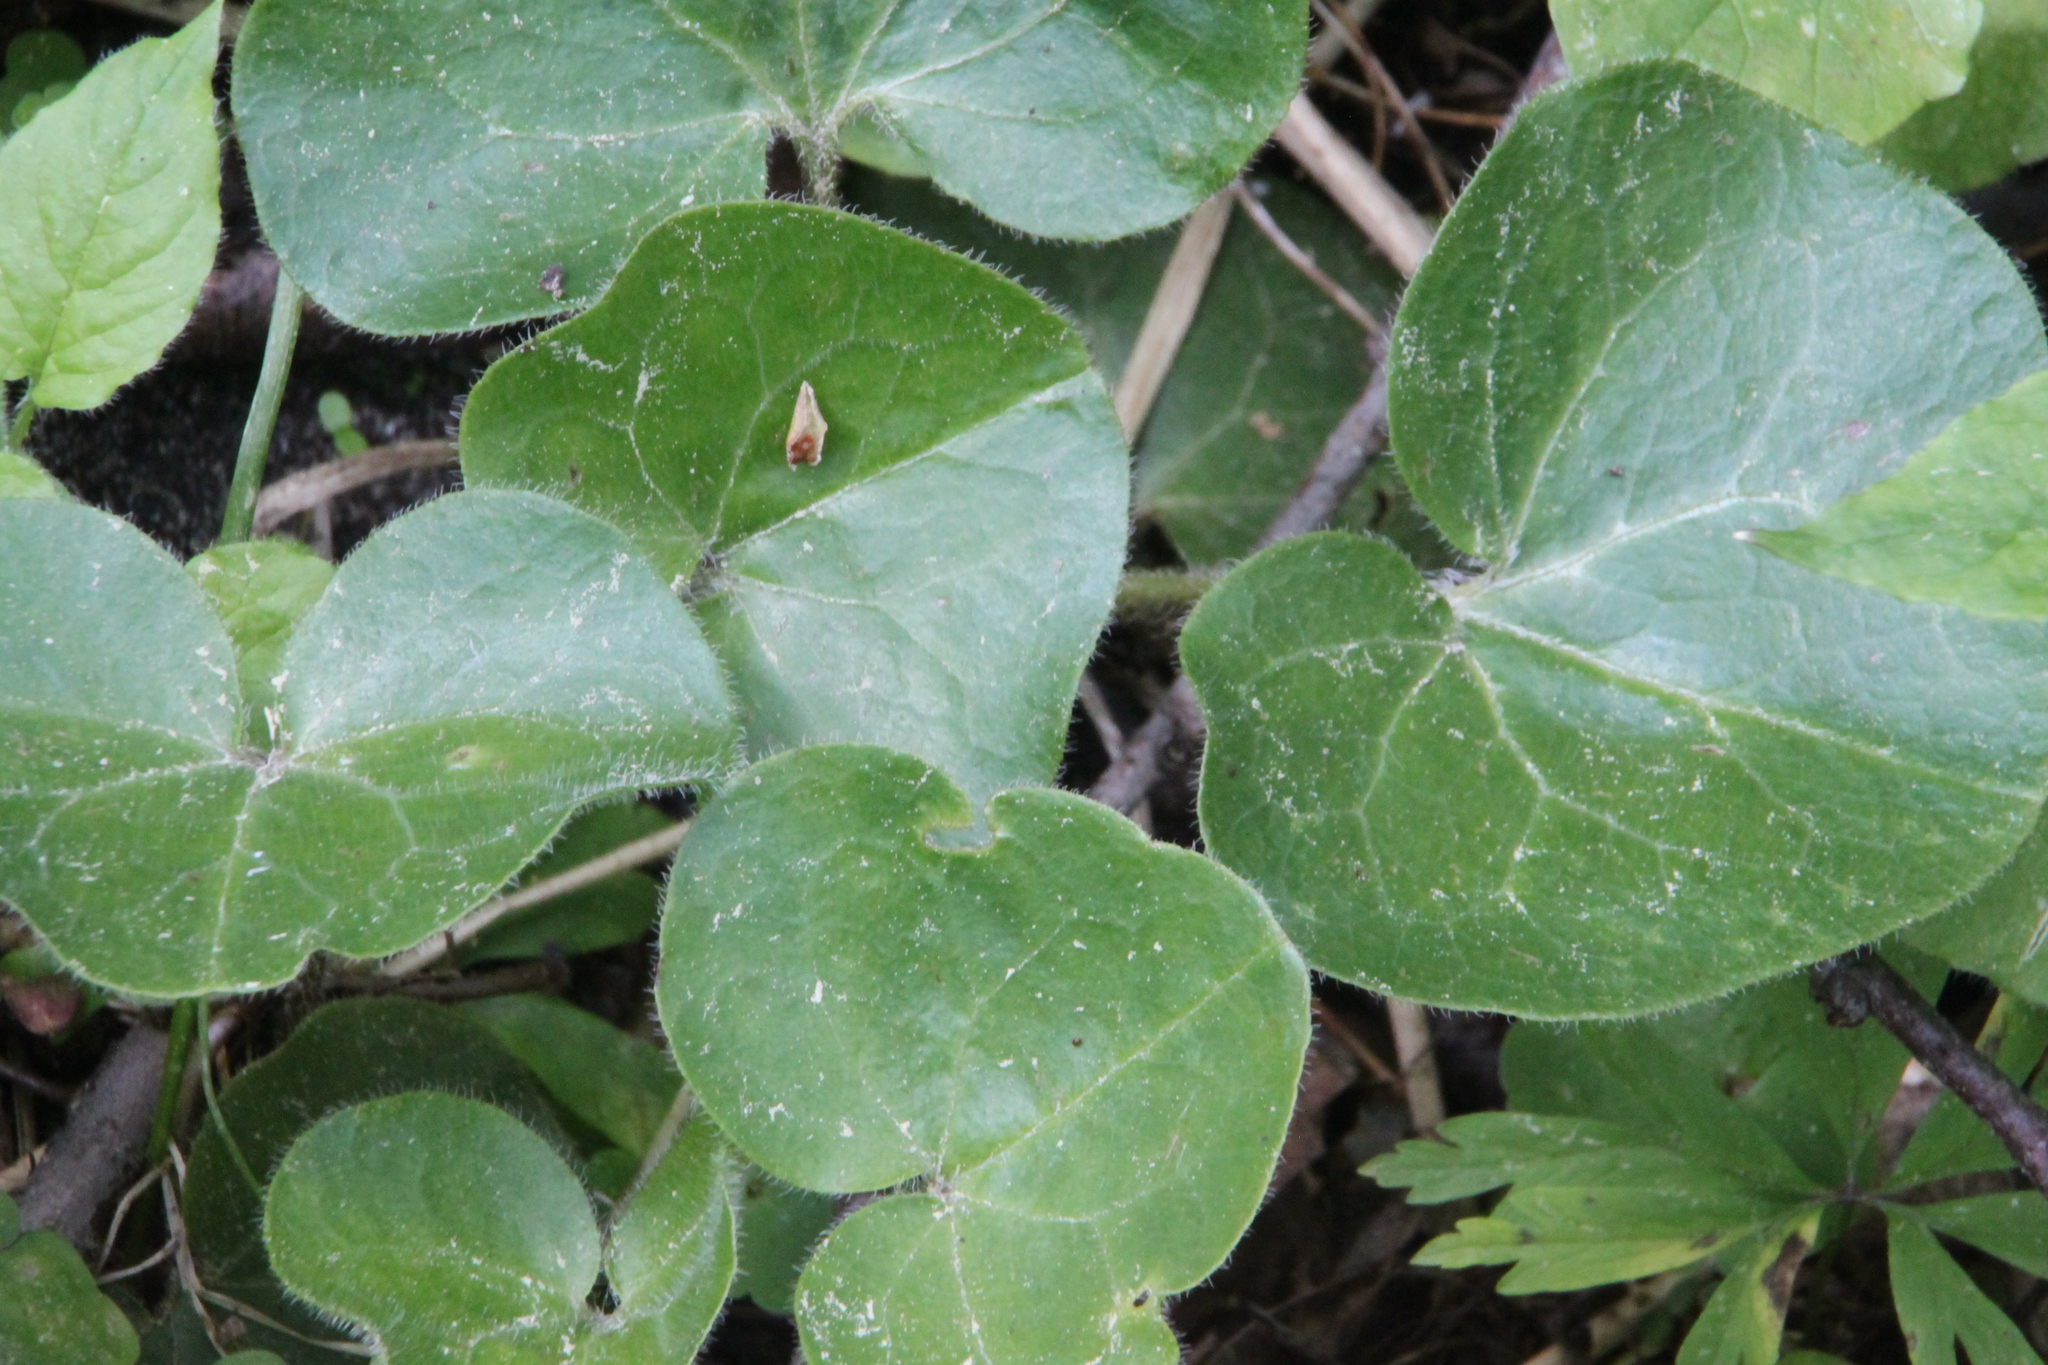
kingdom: Plantae
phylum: Tracheophyta
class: Magnoliopsida
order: Piperales
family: Aristolochiaceae
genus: Asarum
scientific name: Asarum europaeum
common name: Asarabacca
